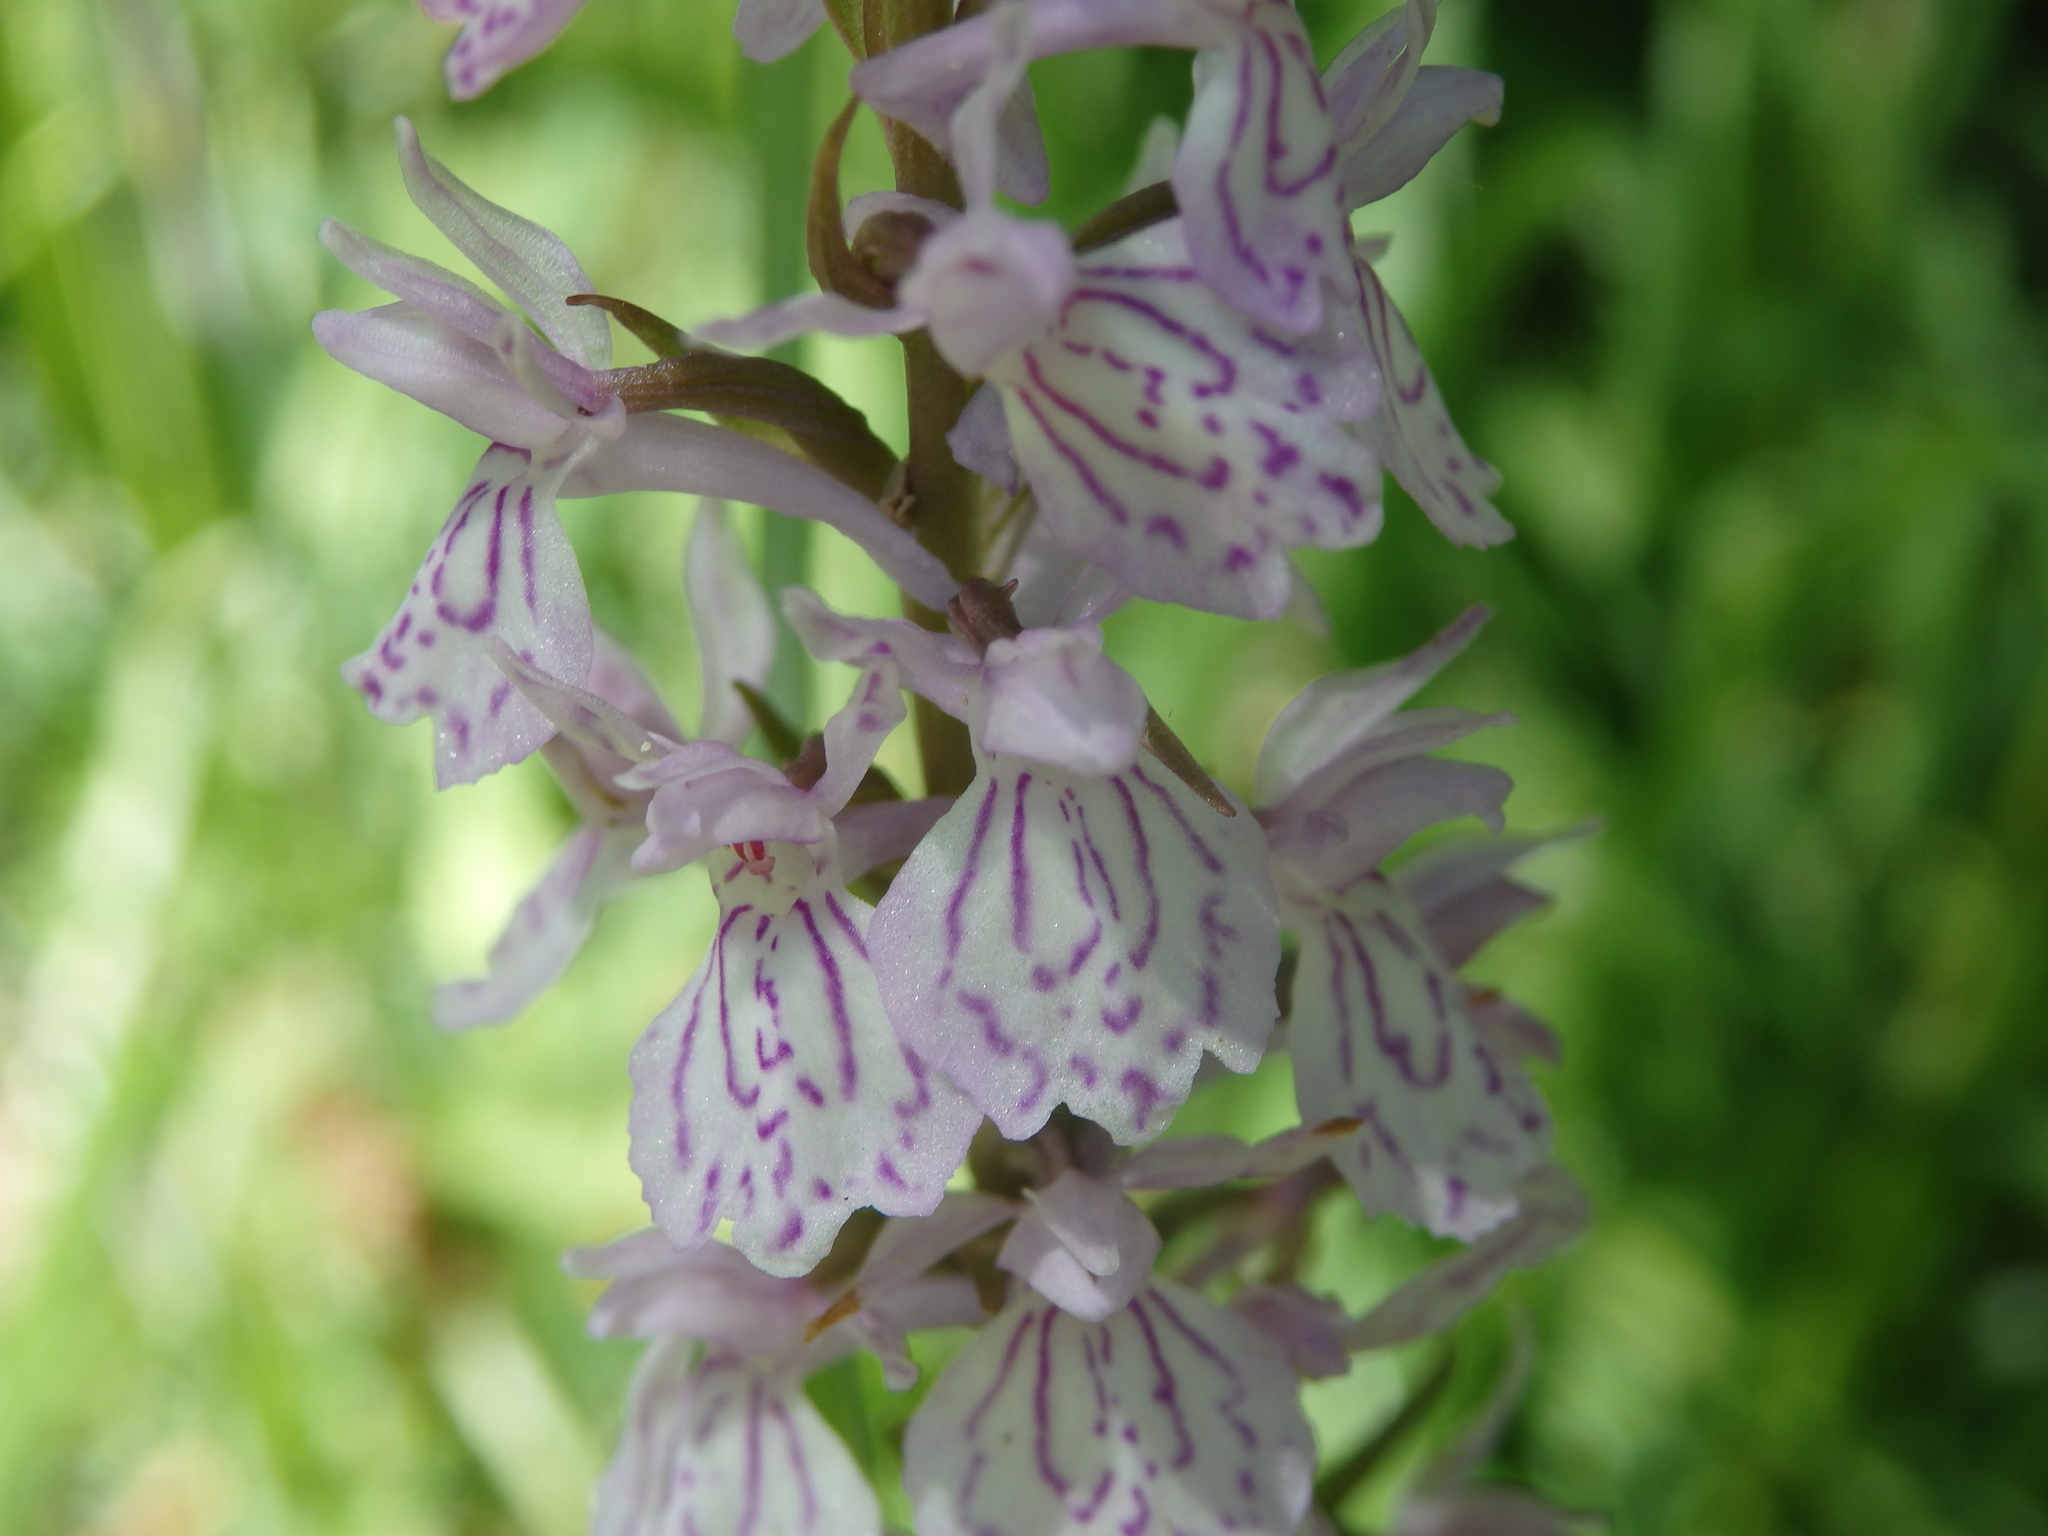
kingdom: Plantae
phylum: Tracheophyta
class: Liliopsida
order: Asparagales
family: Orchidaceae
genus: Dactylorhiza
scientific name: Dactylorhiza maculata
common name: Heath spotted-orchid
